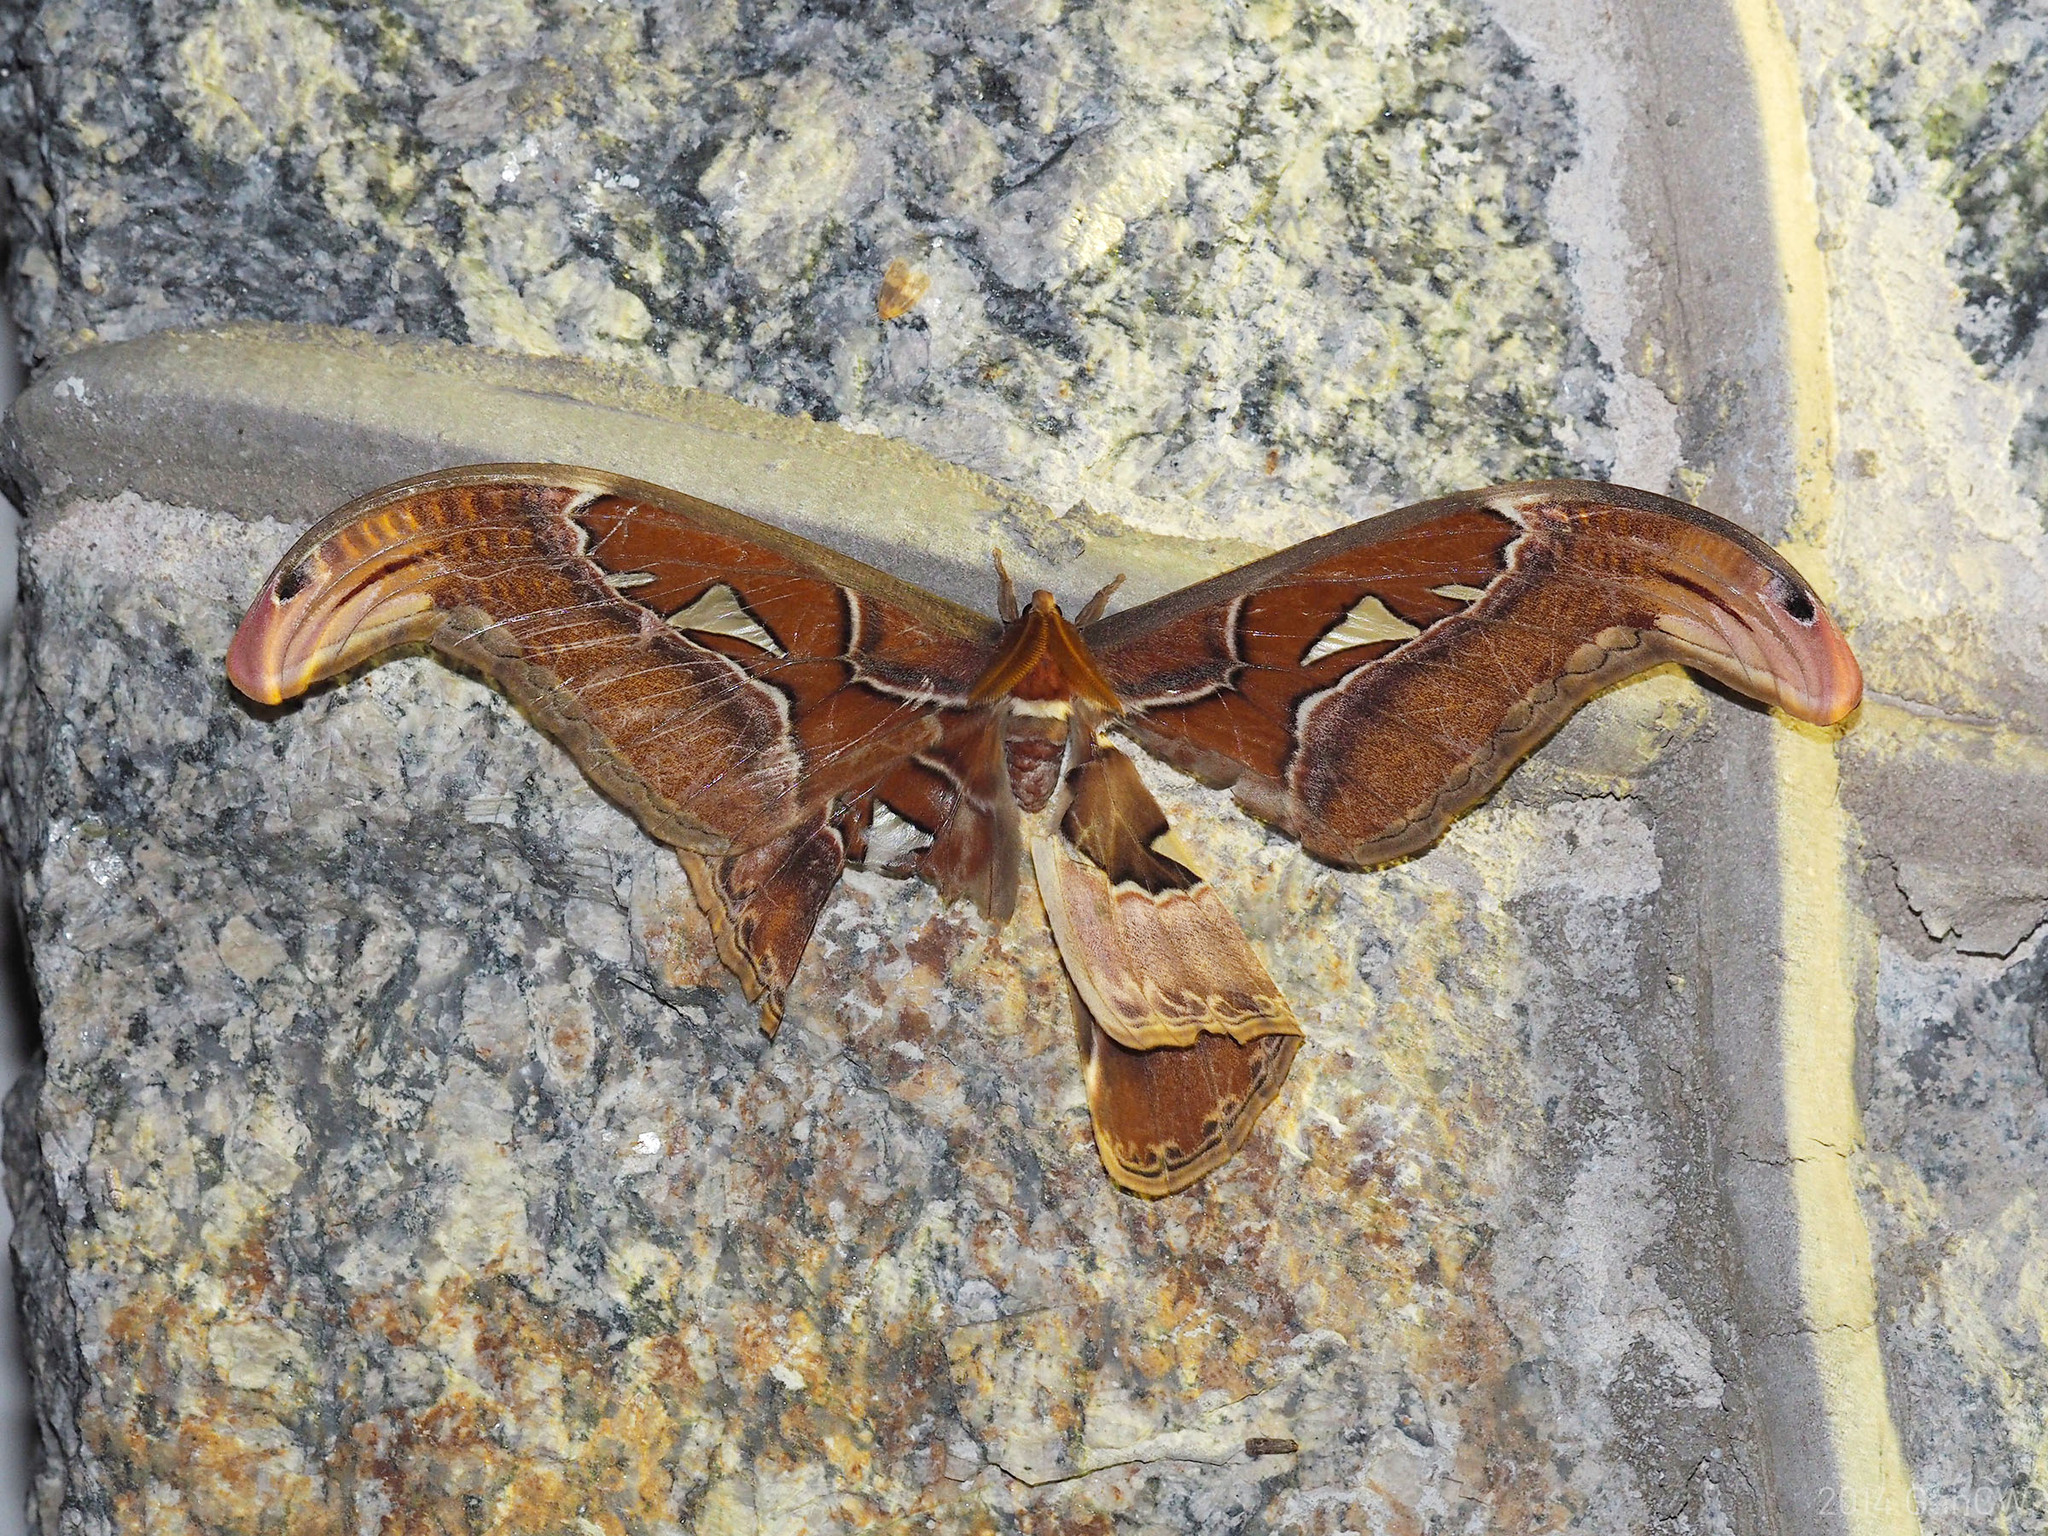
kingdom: Animalia
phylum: Arthropoda
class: Insecta
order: Lepidoptera
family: Saturniidae
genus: Attacus
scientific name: Attacus atlas
